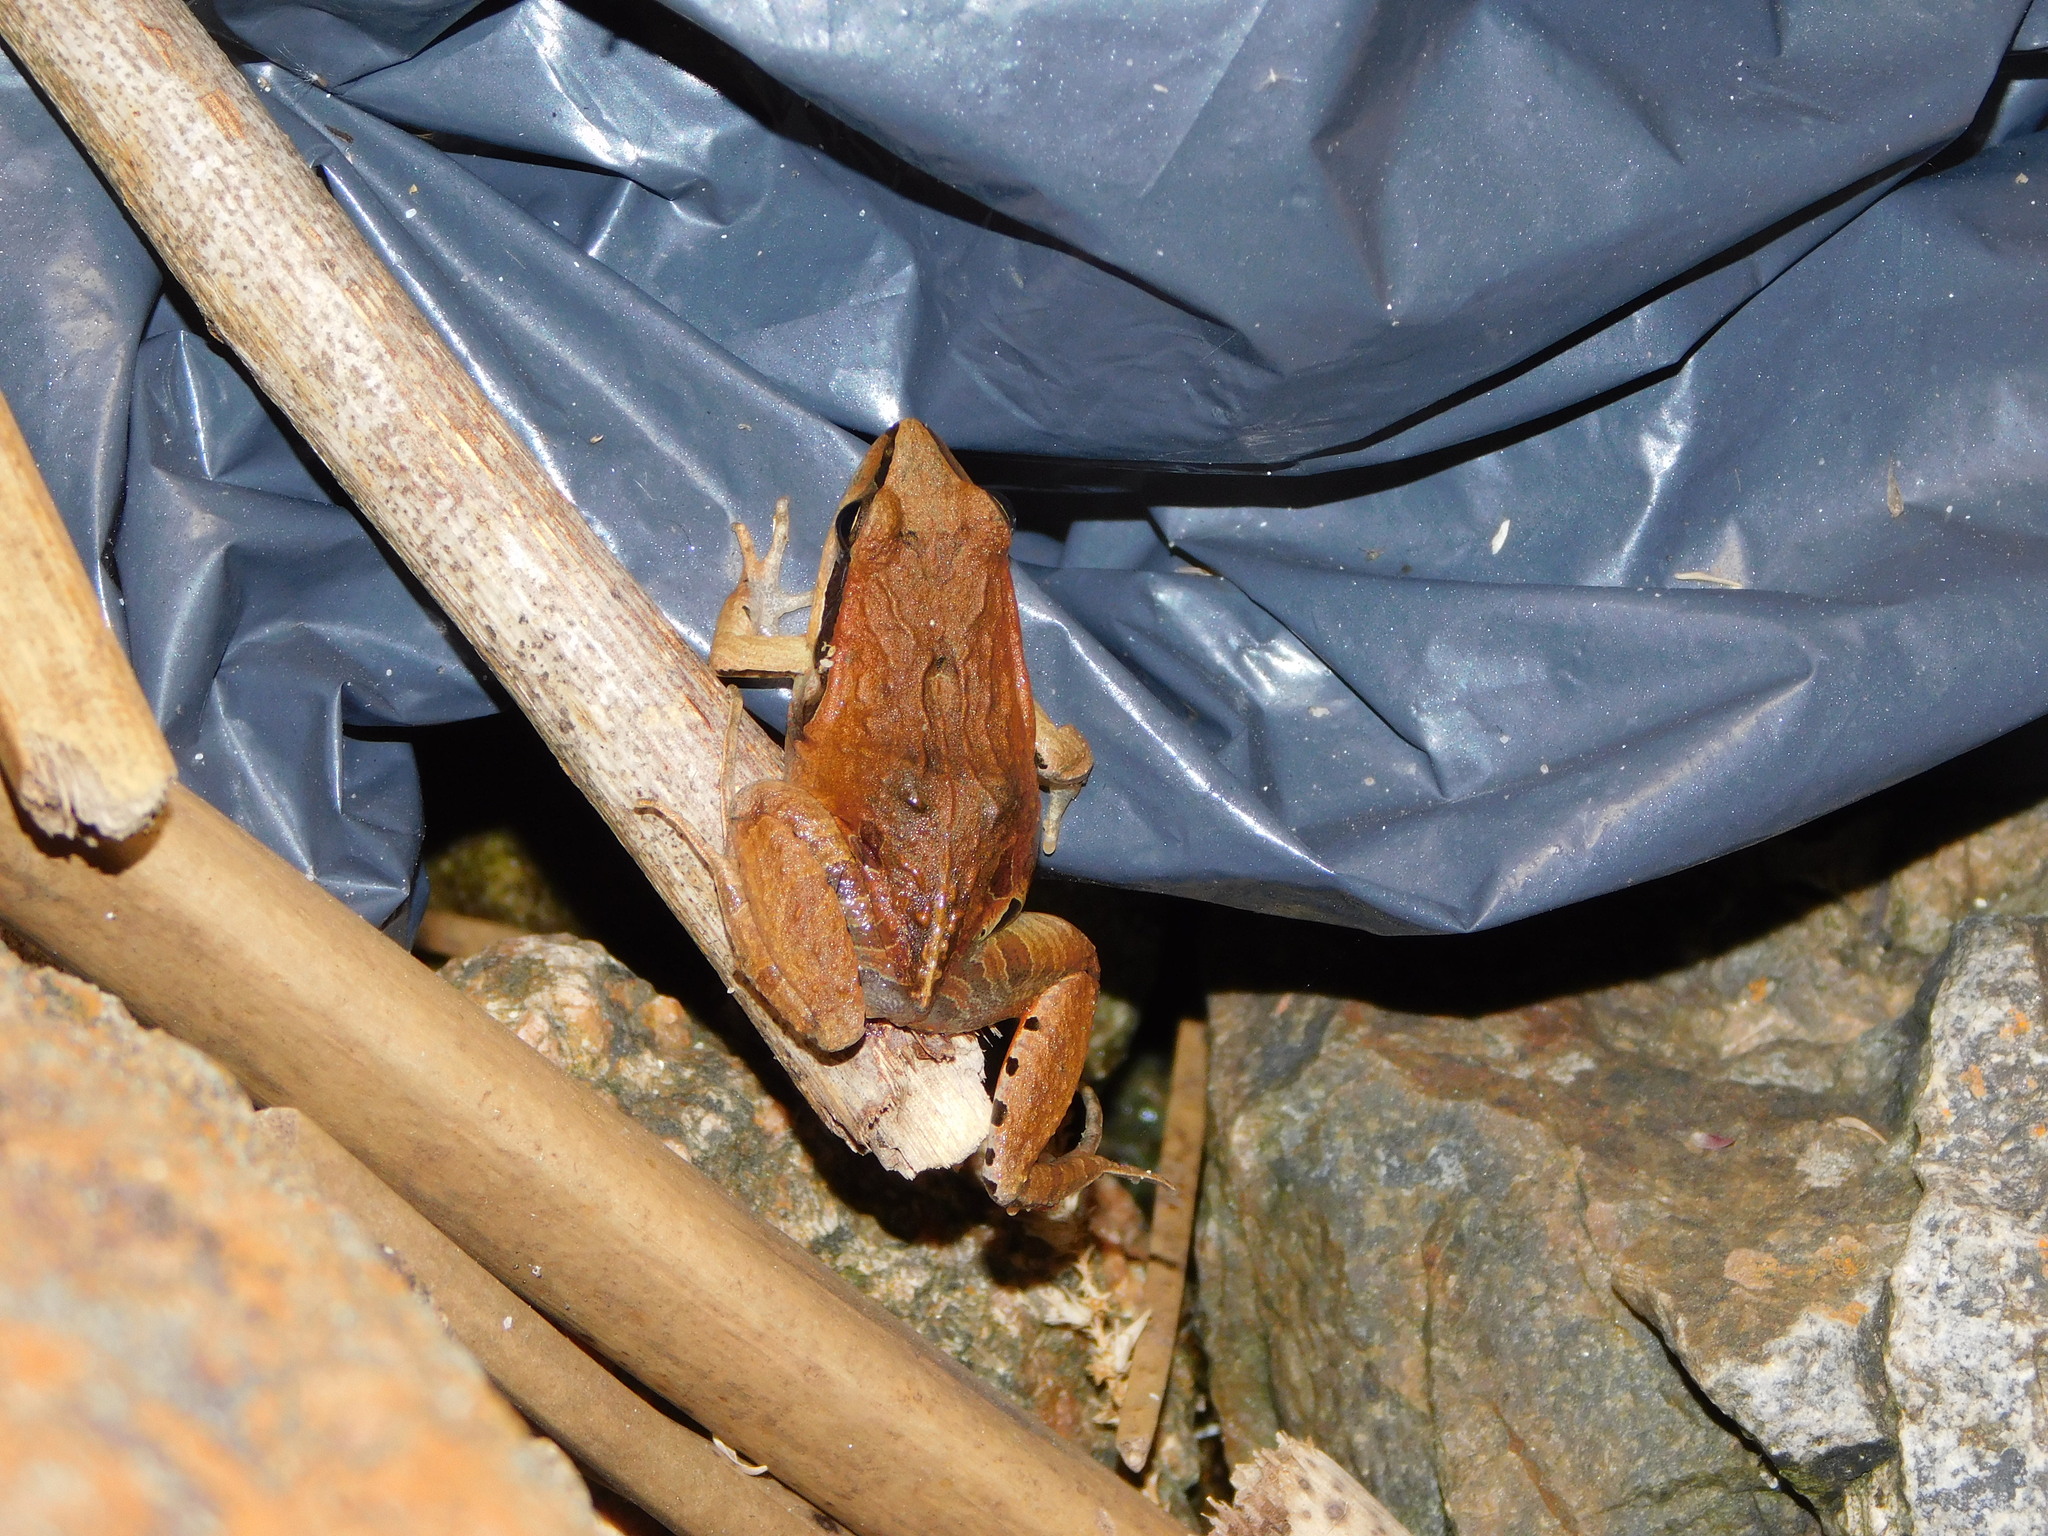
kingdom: Animalia
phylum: Chordata
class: Amphibia
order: Anura
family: Leptodactylidae
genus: Physalaemus
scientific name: Physalaemus gracilis
